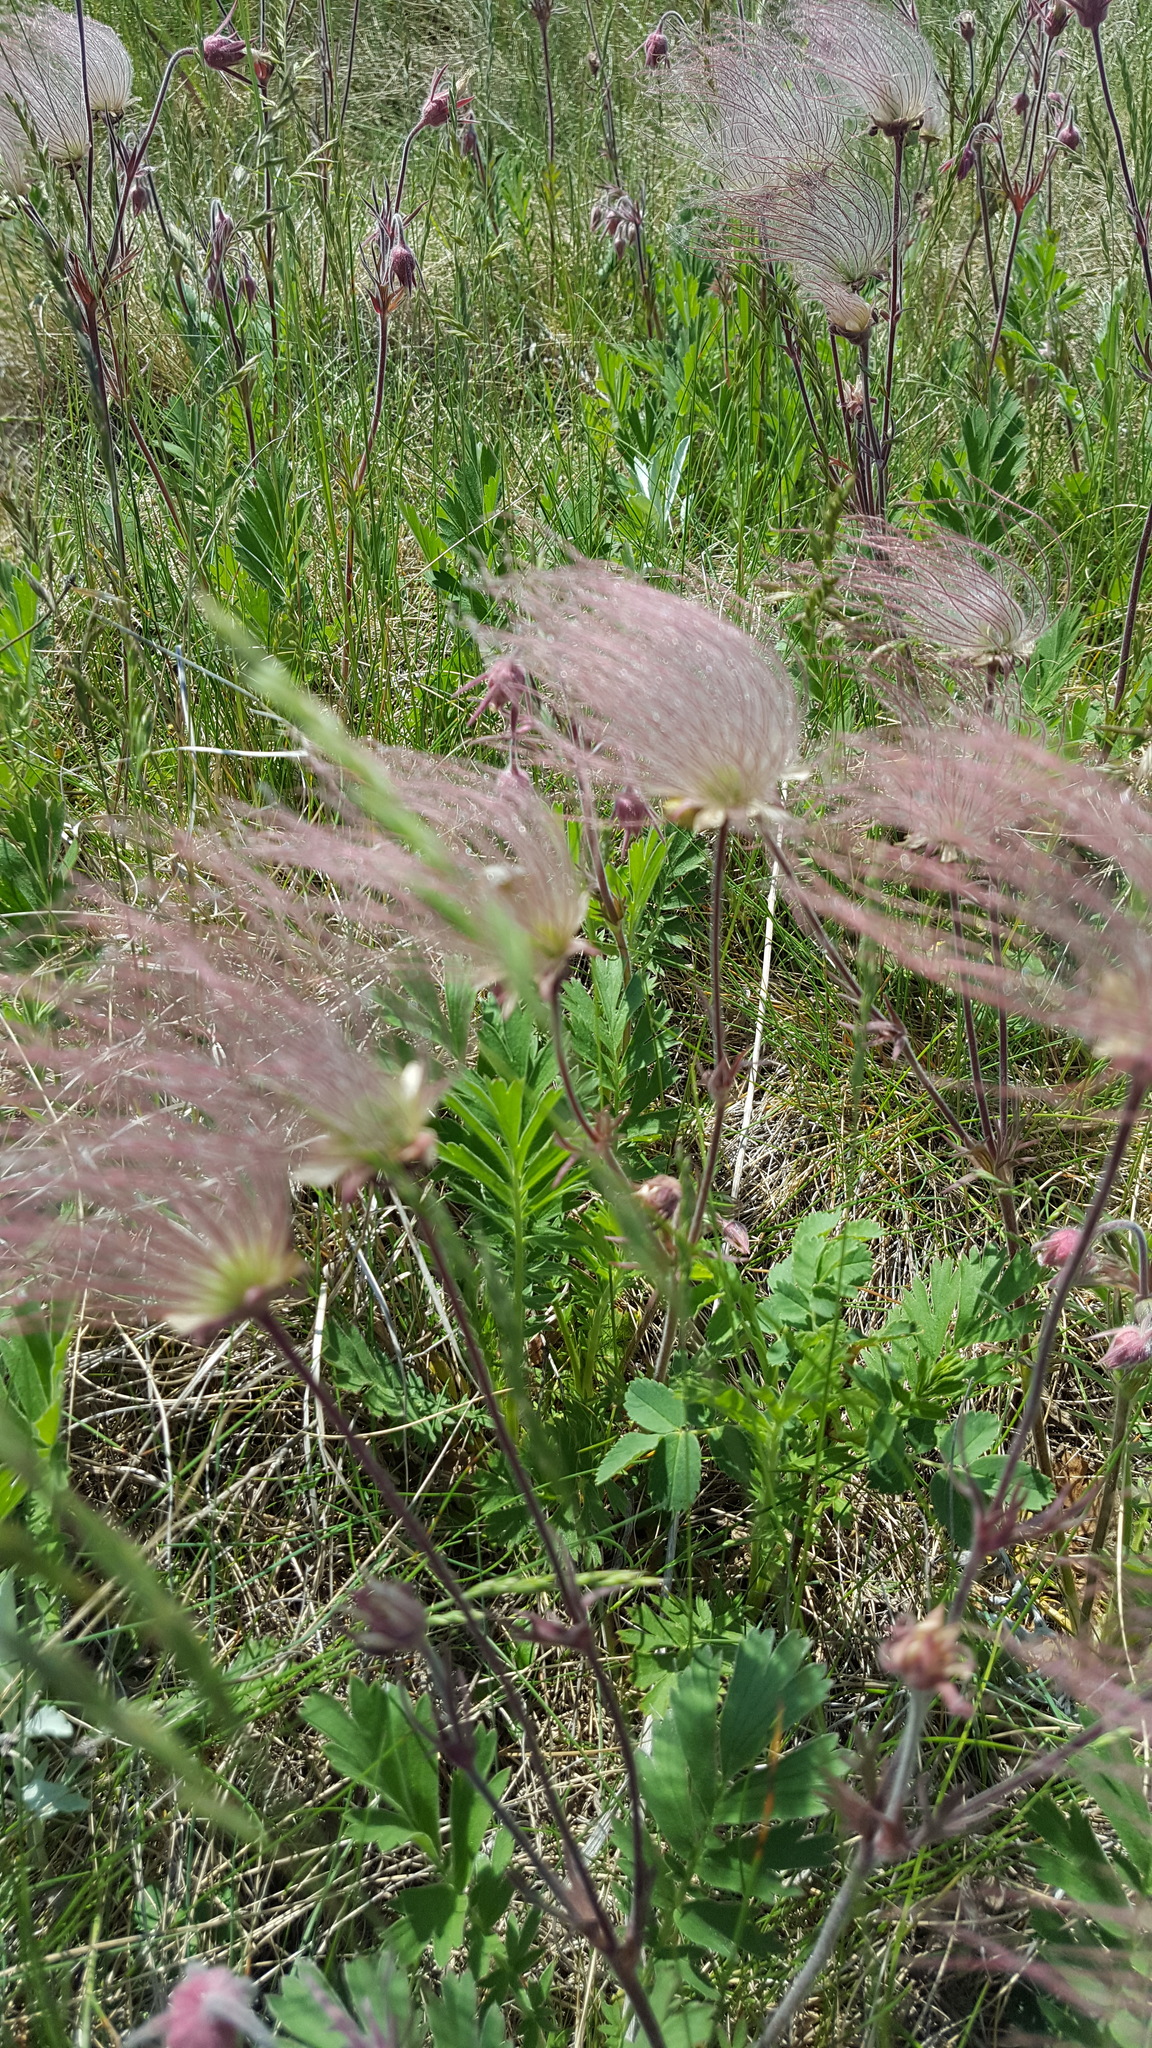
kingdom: Plantae
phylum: Tracheophyta
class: Magnoliopsida
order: Rosales
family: Rosaceae
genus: Geum
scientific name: Geum triflorum
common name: Old man's whiskers
